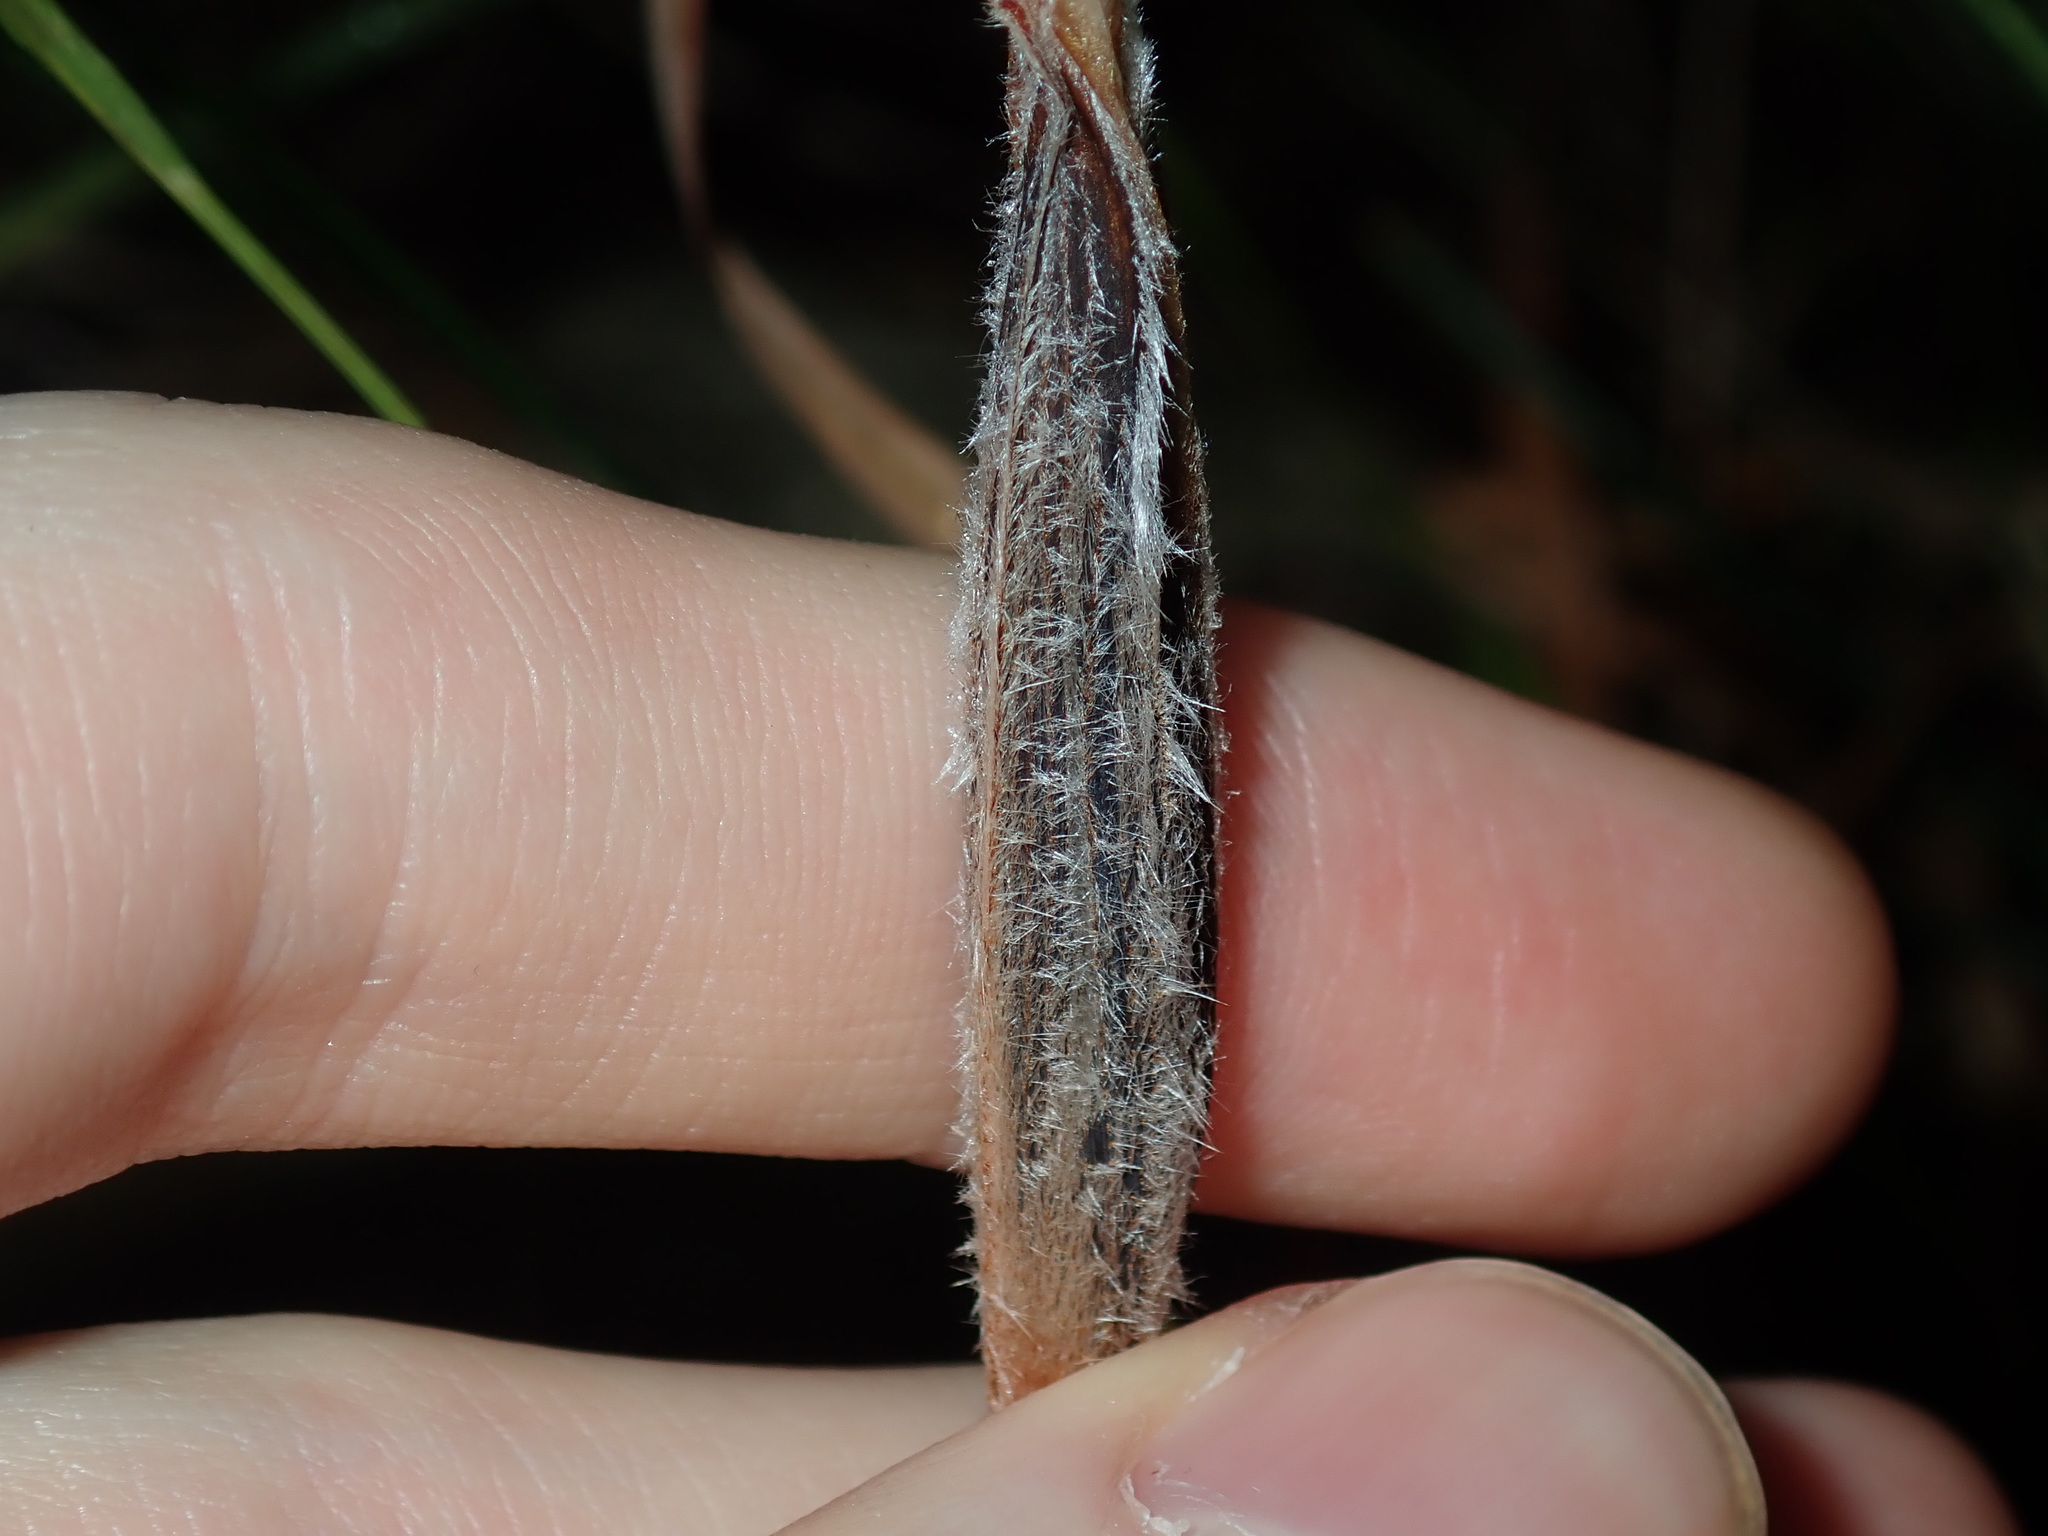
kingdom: Plantae
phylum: Tracheophyta
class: Liliopsida
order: Asparagales
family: Iridaceae
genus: Patersonia
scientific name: Patersonia sericea
